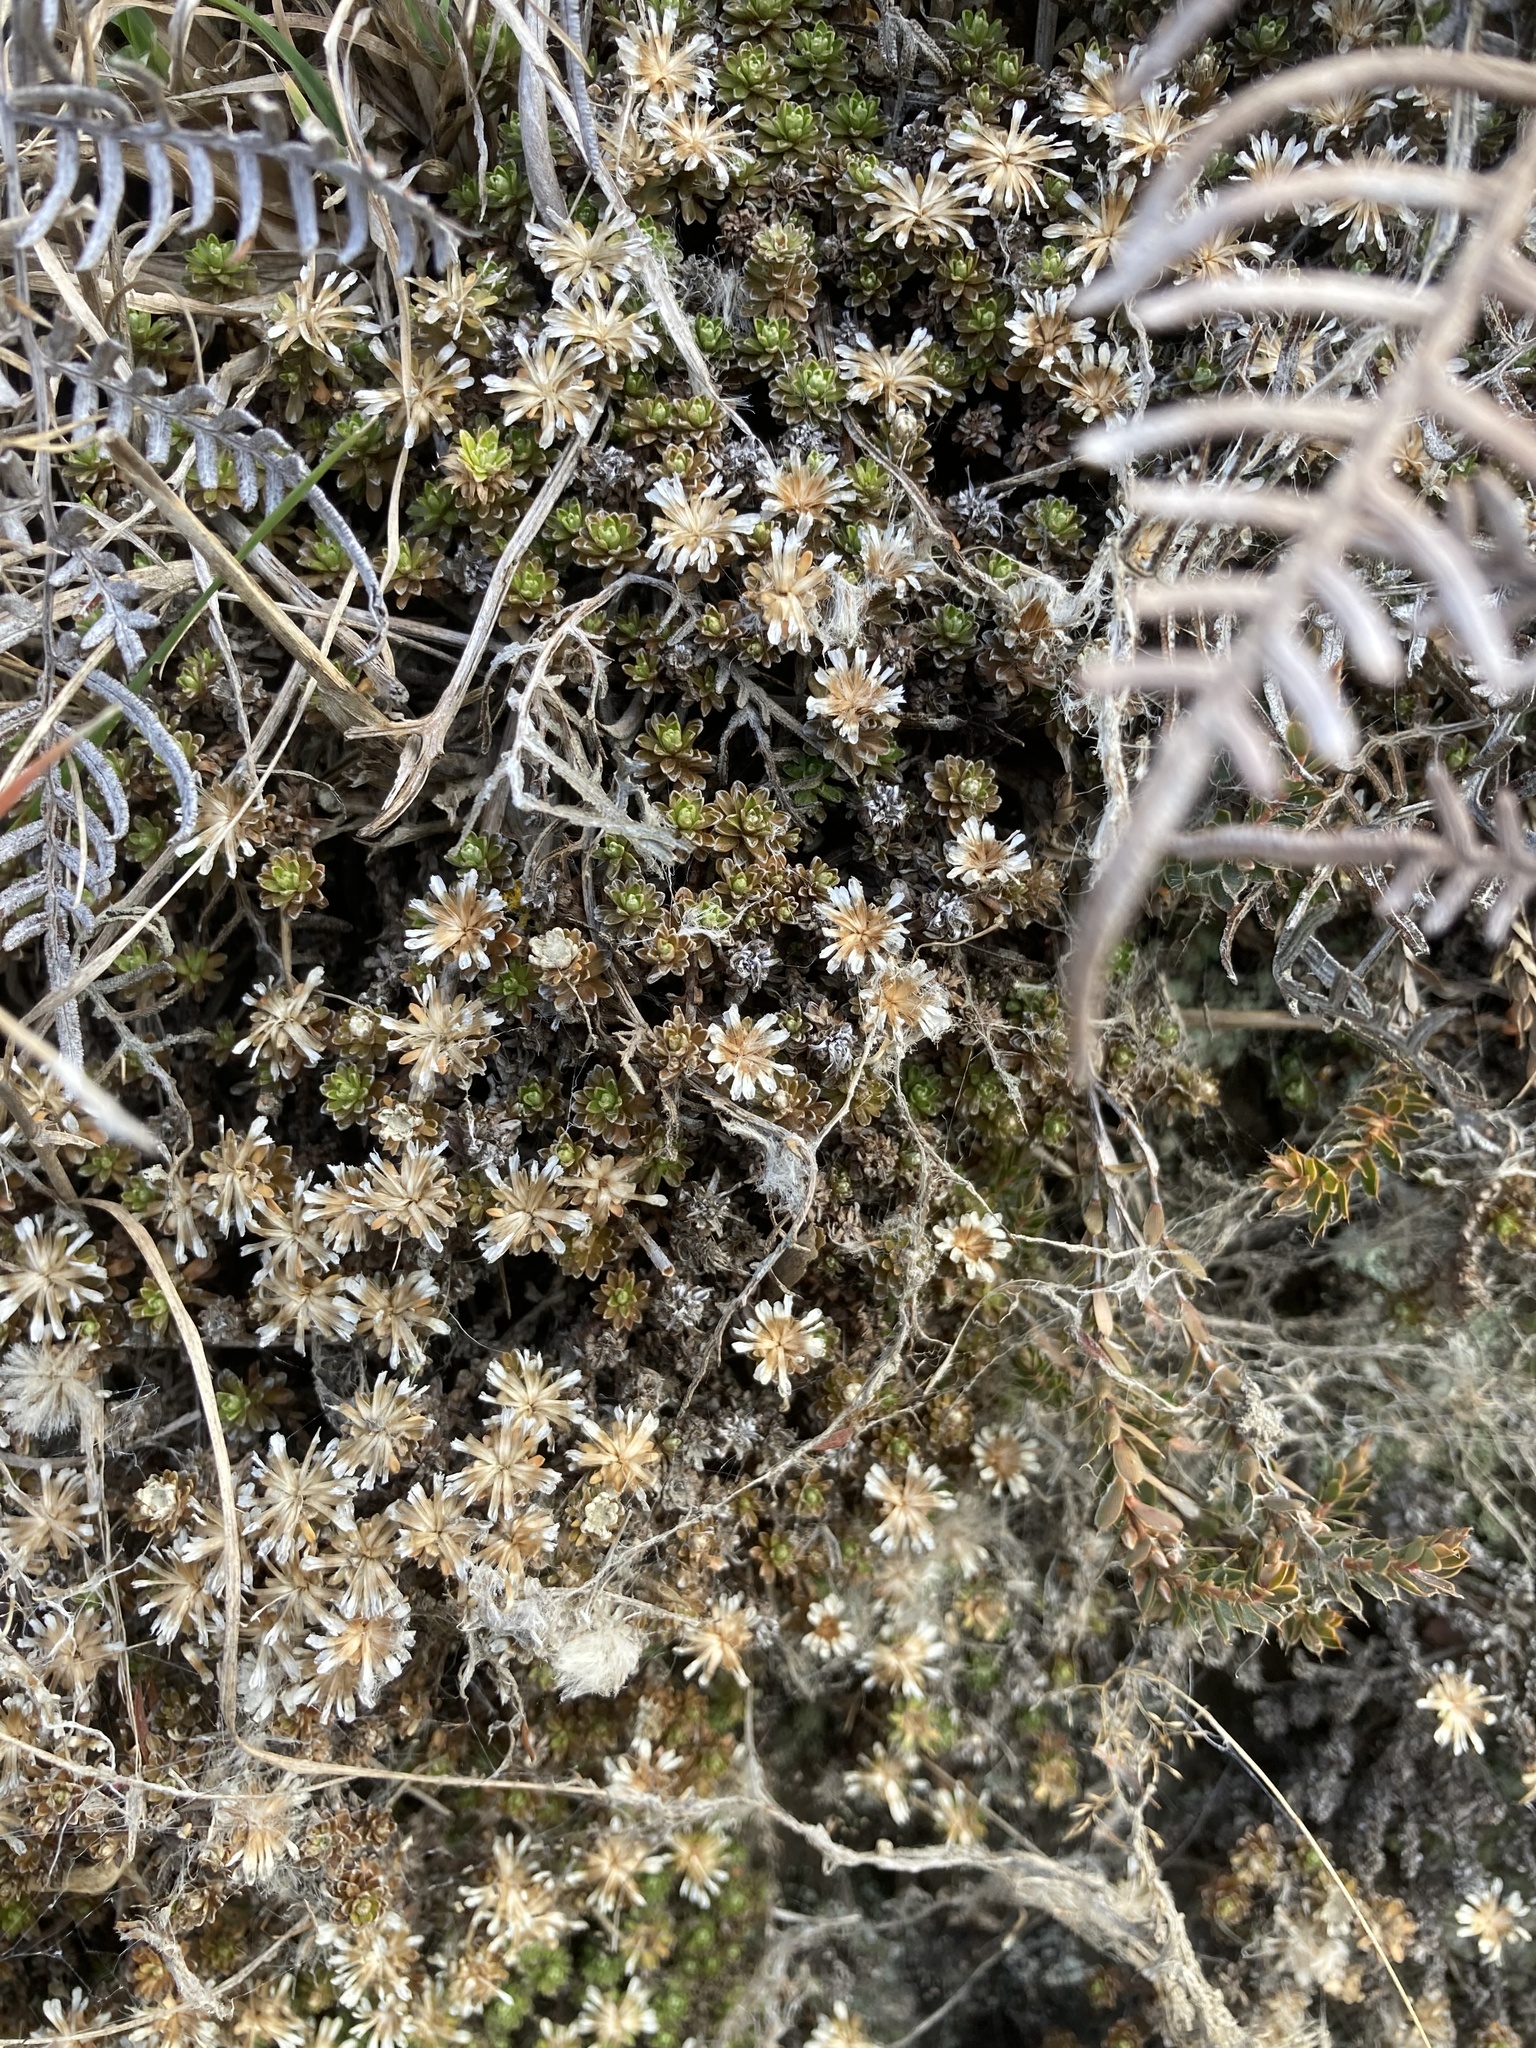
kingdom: Plantae
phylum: Tracheophyta
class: Magnoliopsida
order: Asterales
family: Asteraceae
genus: Raoulia
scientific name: Raoulia subsericea
